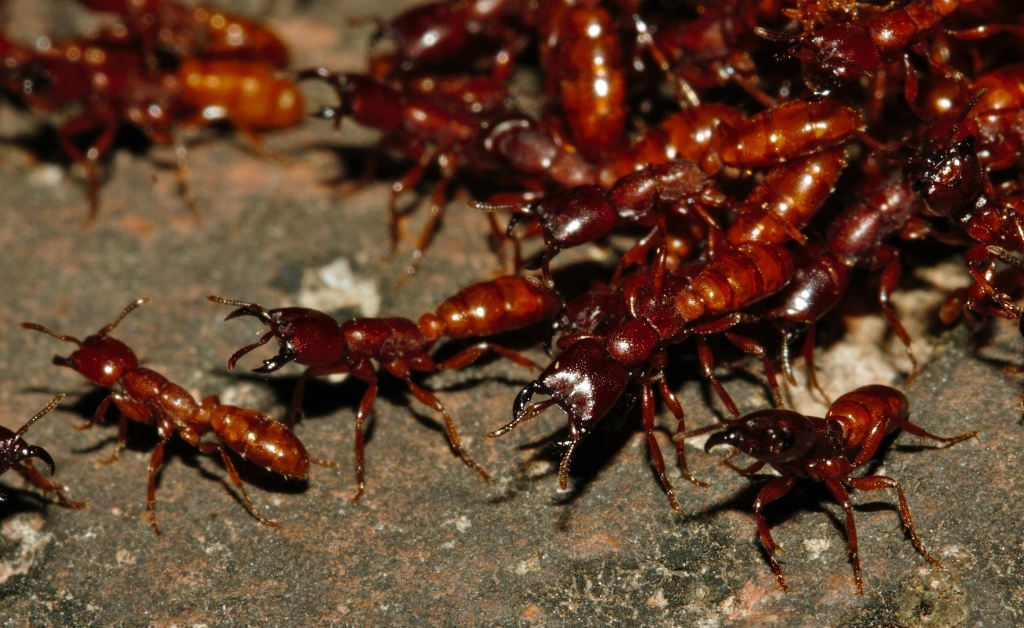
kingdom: Animalia
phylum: Arthropoda
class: Insecta
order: Hymenoptera
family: Formicidae
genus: Dorylus
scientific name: Dorylus helvolus
